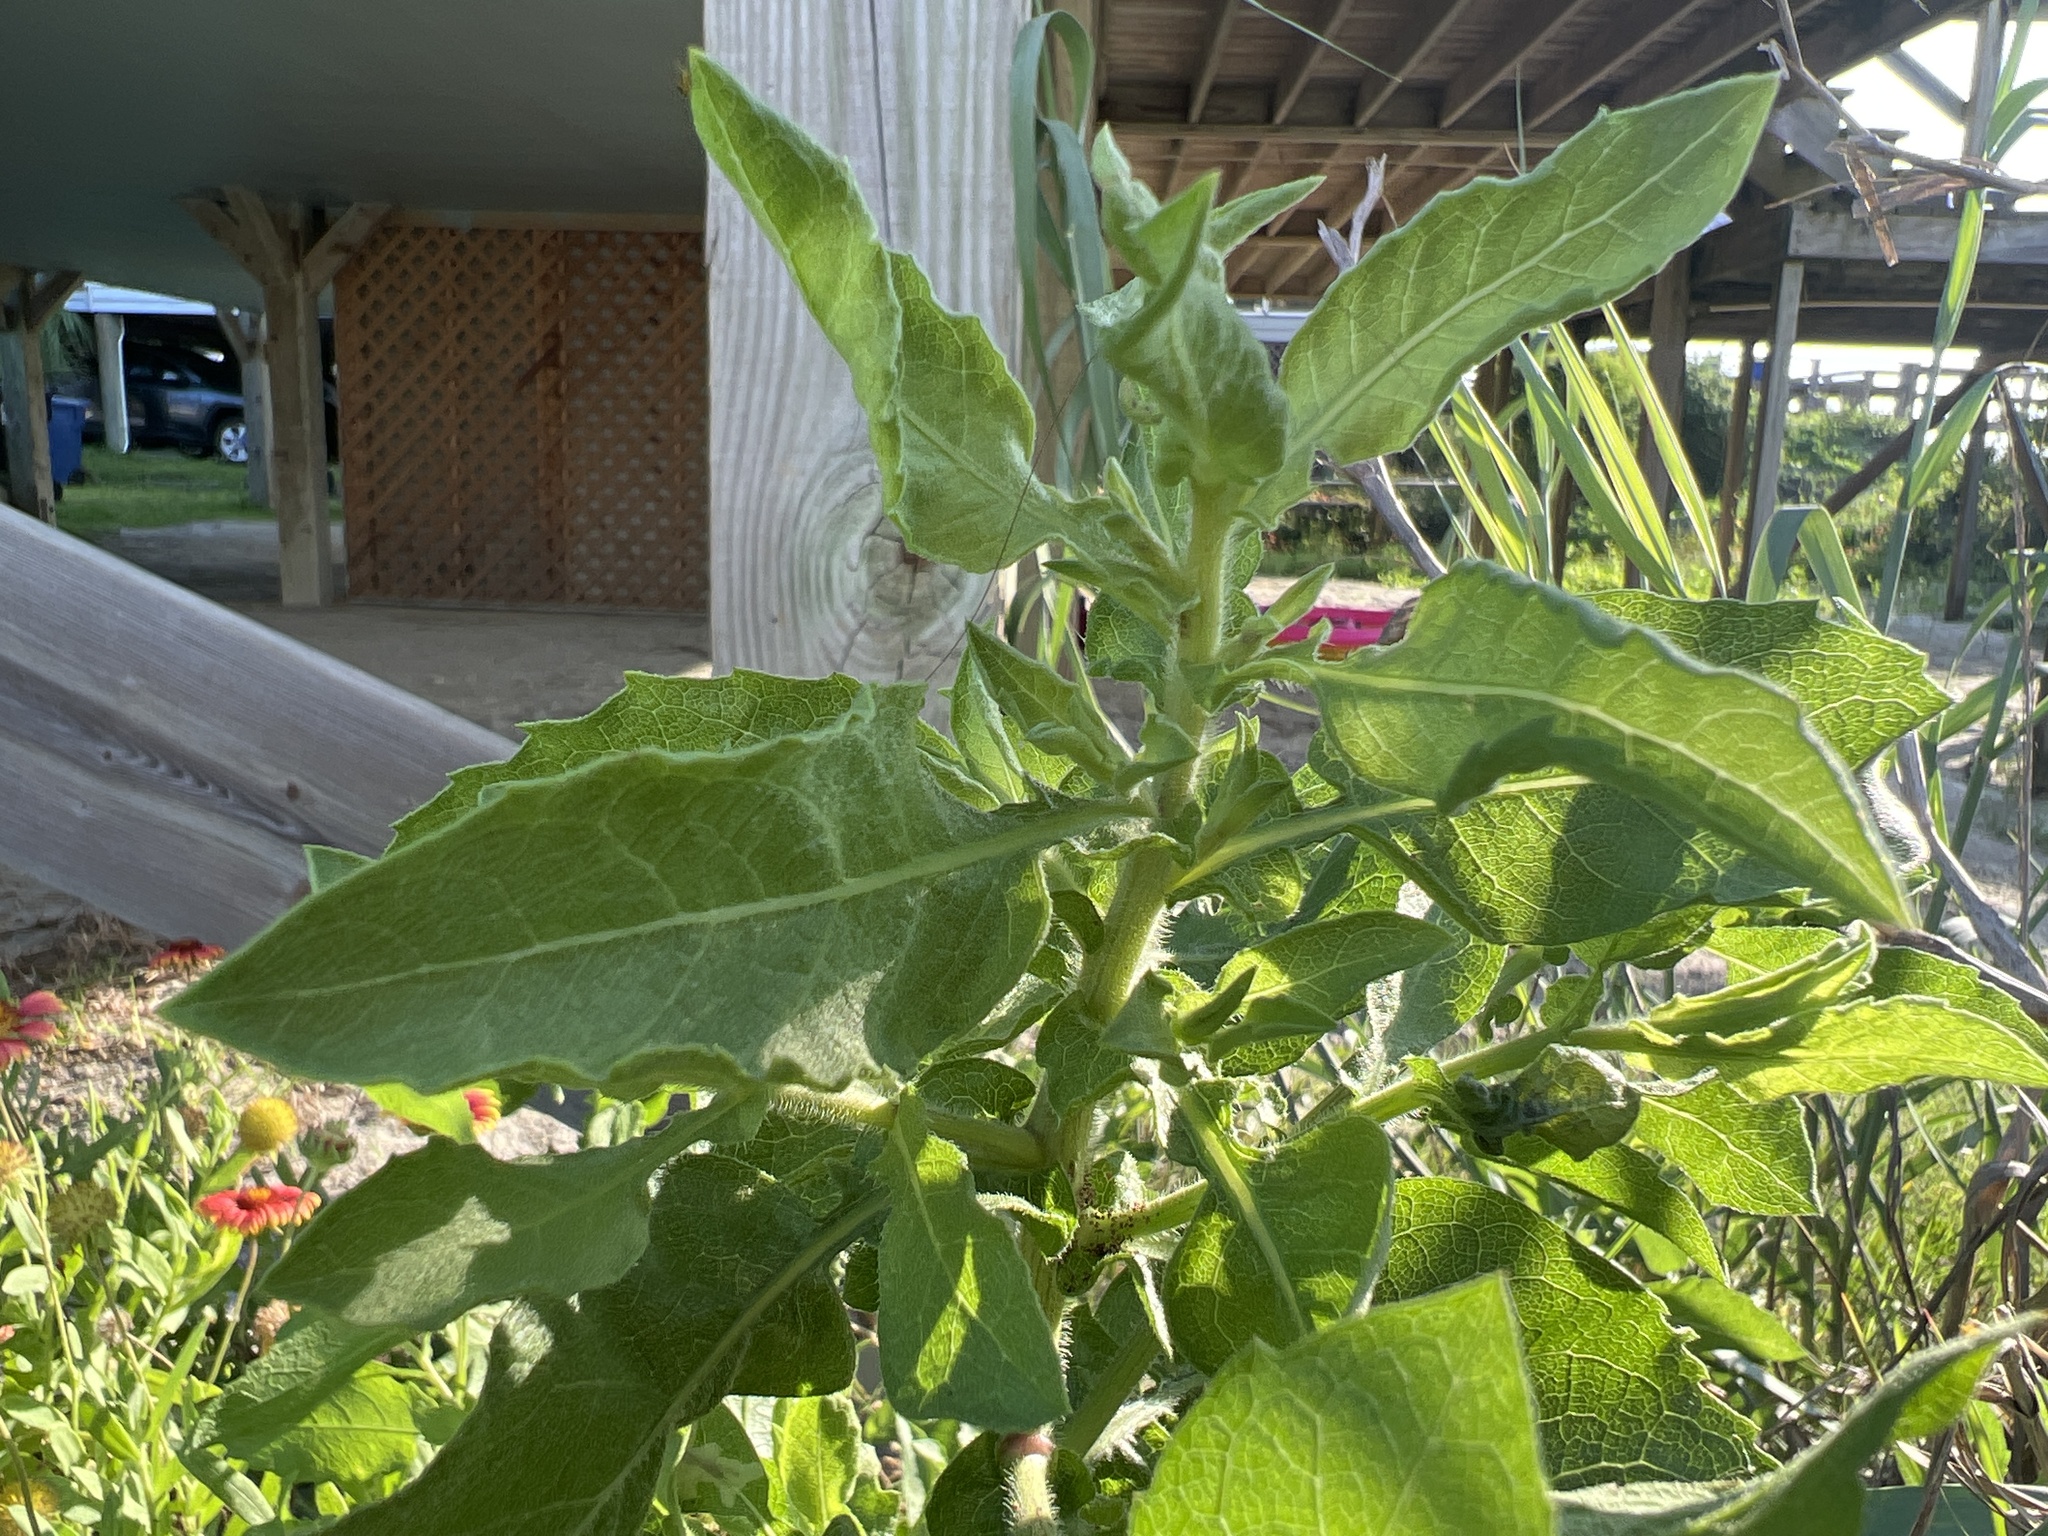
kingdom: Plantae
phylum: Tracheophyta
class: Magnoliopsida
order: Asterales
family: Asteraceae
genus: Heterotheca
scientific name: Heterotheca subaxillaris
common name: Camphorweed
